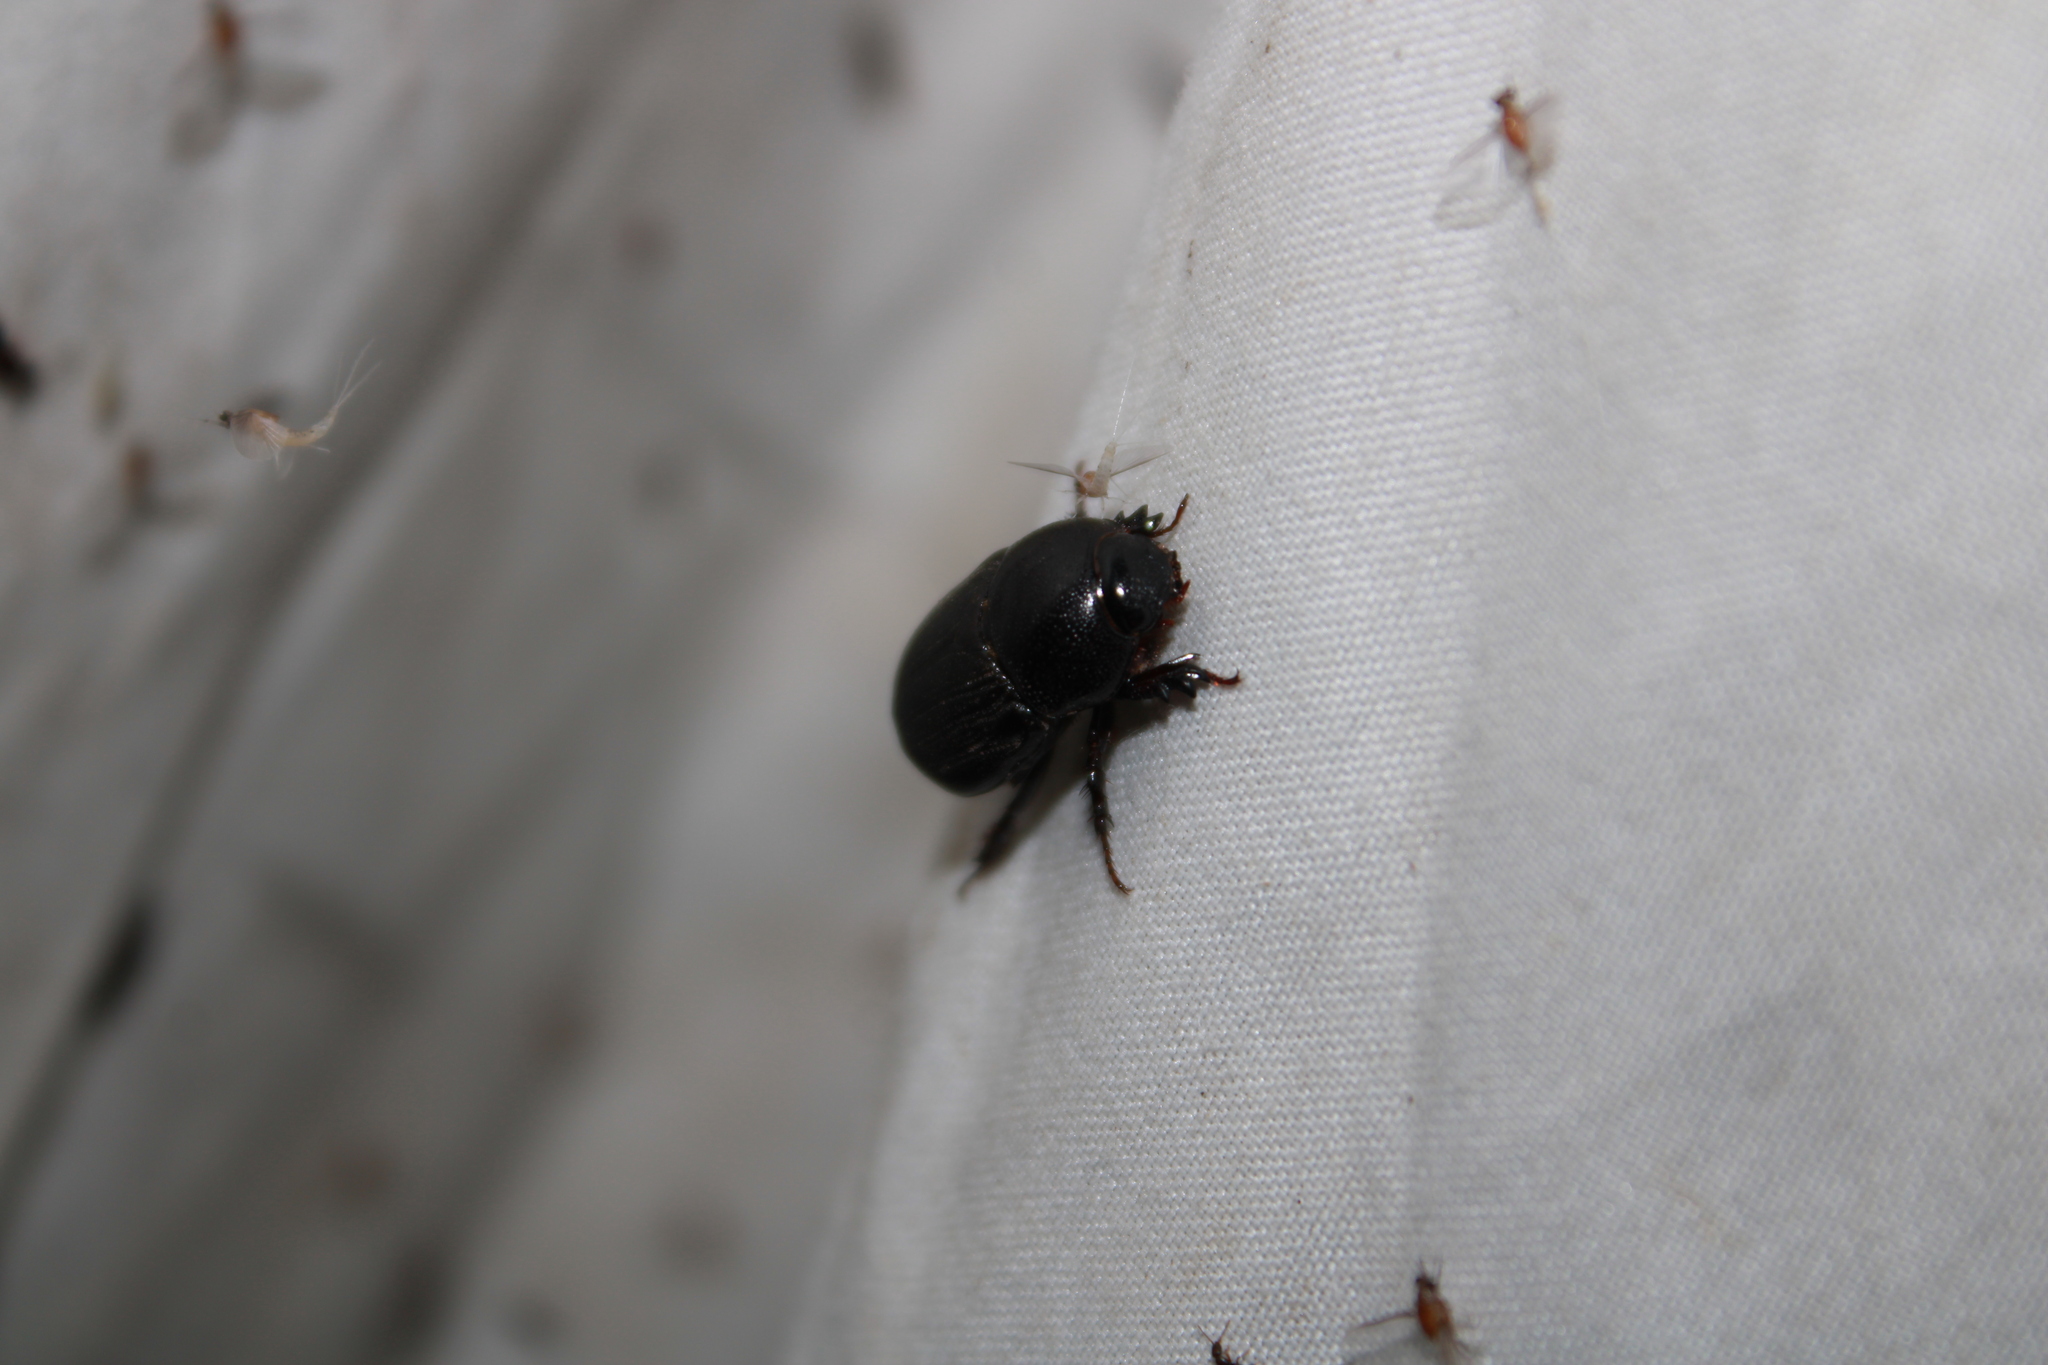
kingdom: Animalia
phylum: Arthropoda
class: Insecta
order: Coleoptera
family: Scarabaeidae
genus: Euetheola
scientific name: Euetheola rugiceps
